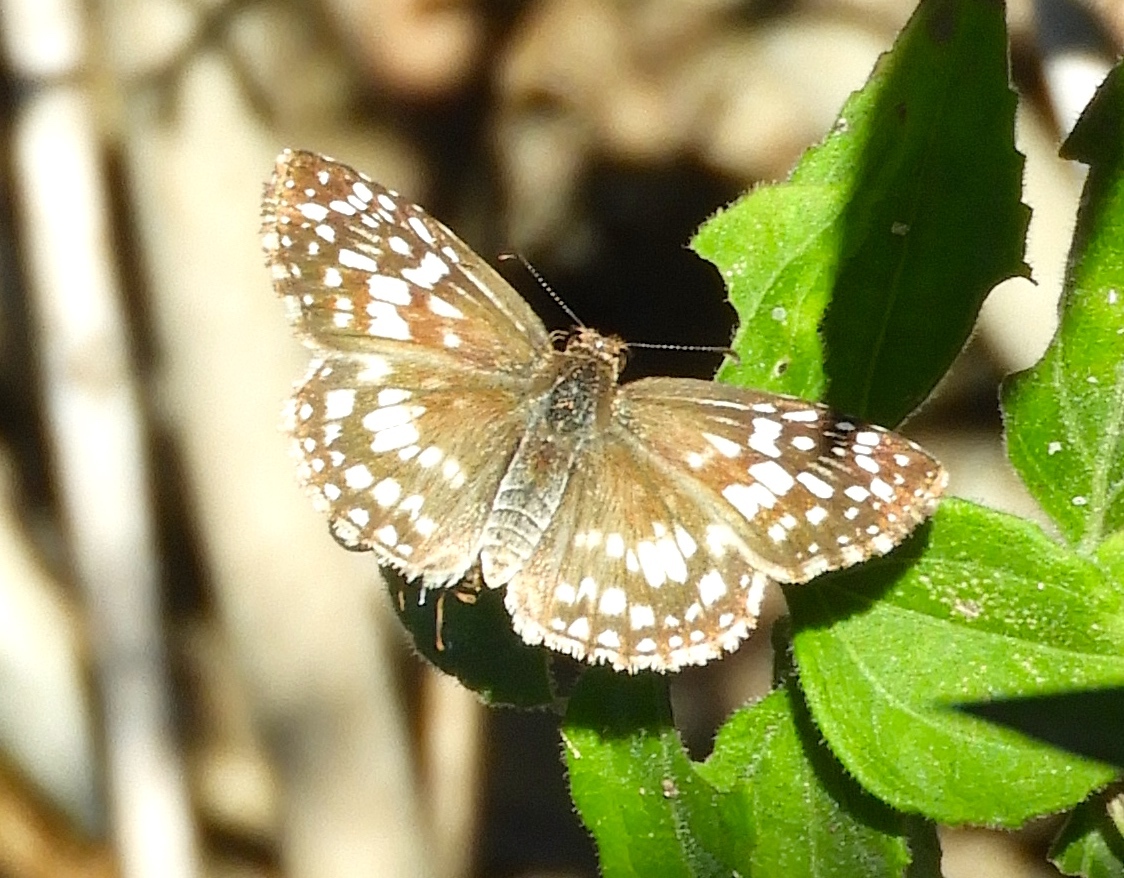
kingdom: Animalia
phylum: Arthropoda
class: Insecta
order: Lepidoptera
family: Hesperiidae
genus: Burnsius
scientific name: Burnsius
